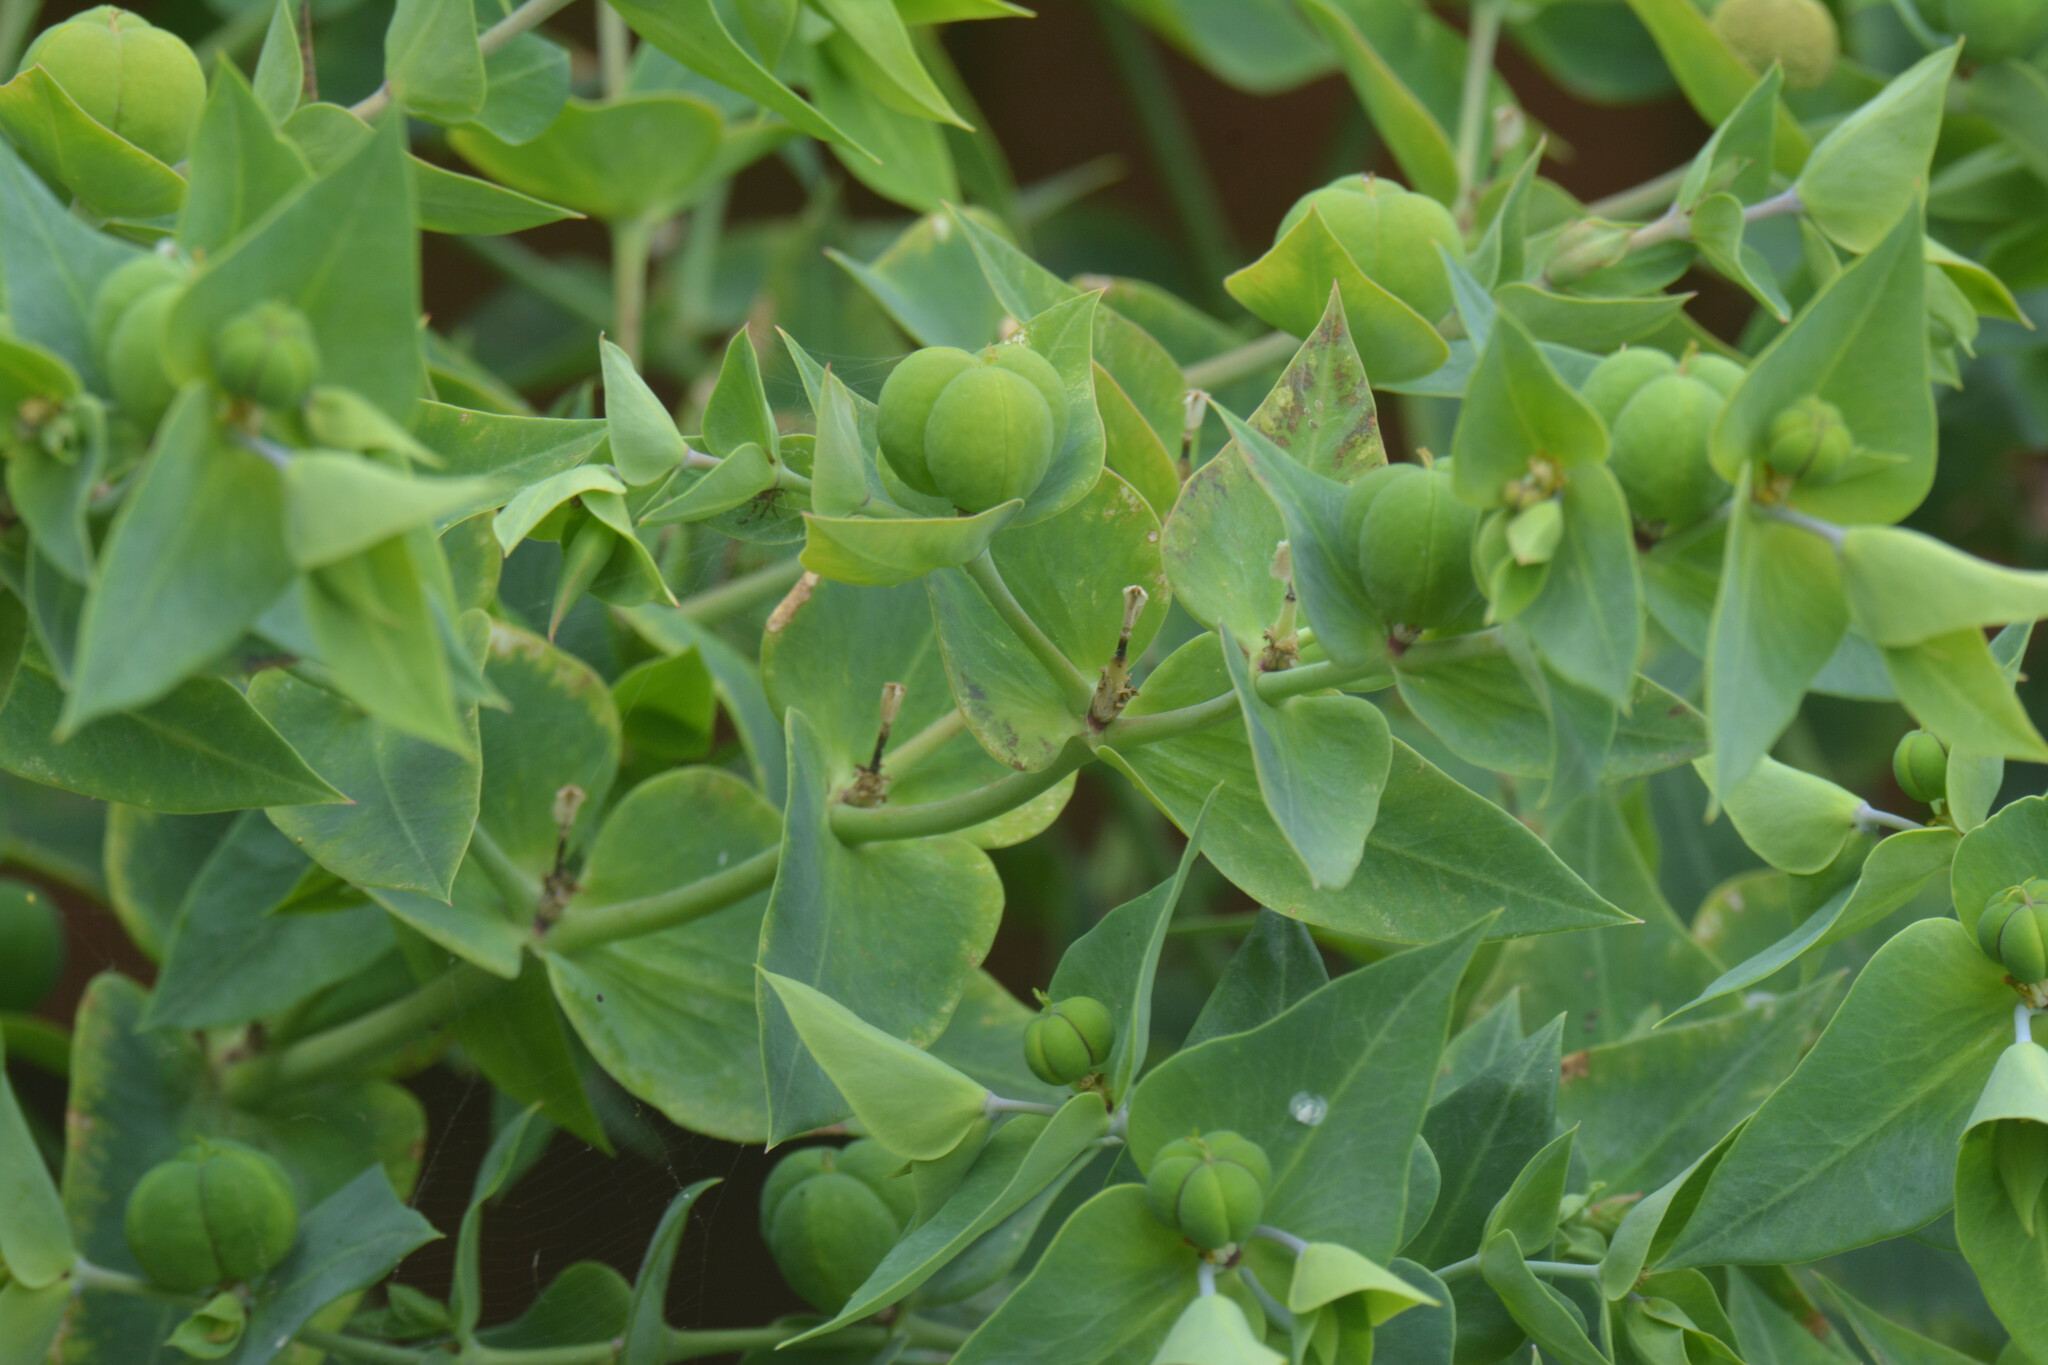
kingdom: Plantae
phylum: Tracheophyta
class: Magnoliopsida
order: Malpighiales
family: Euphorbiaceae
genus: Euphorbia
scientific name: Euphorbia lathyris
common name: Caper spurge
